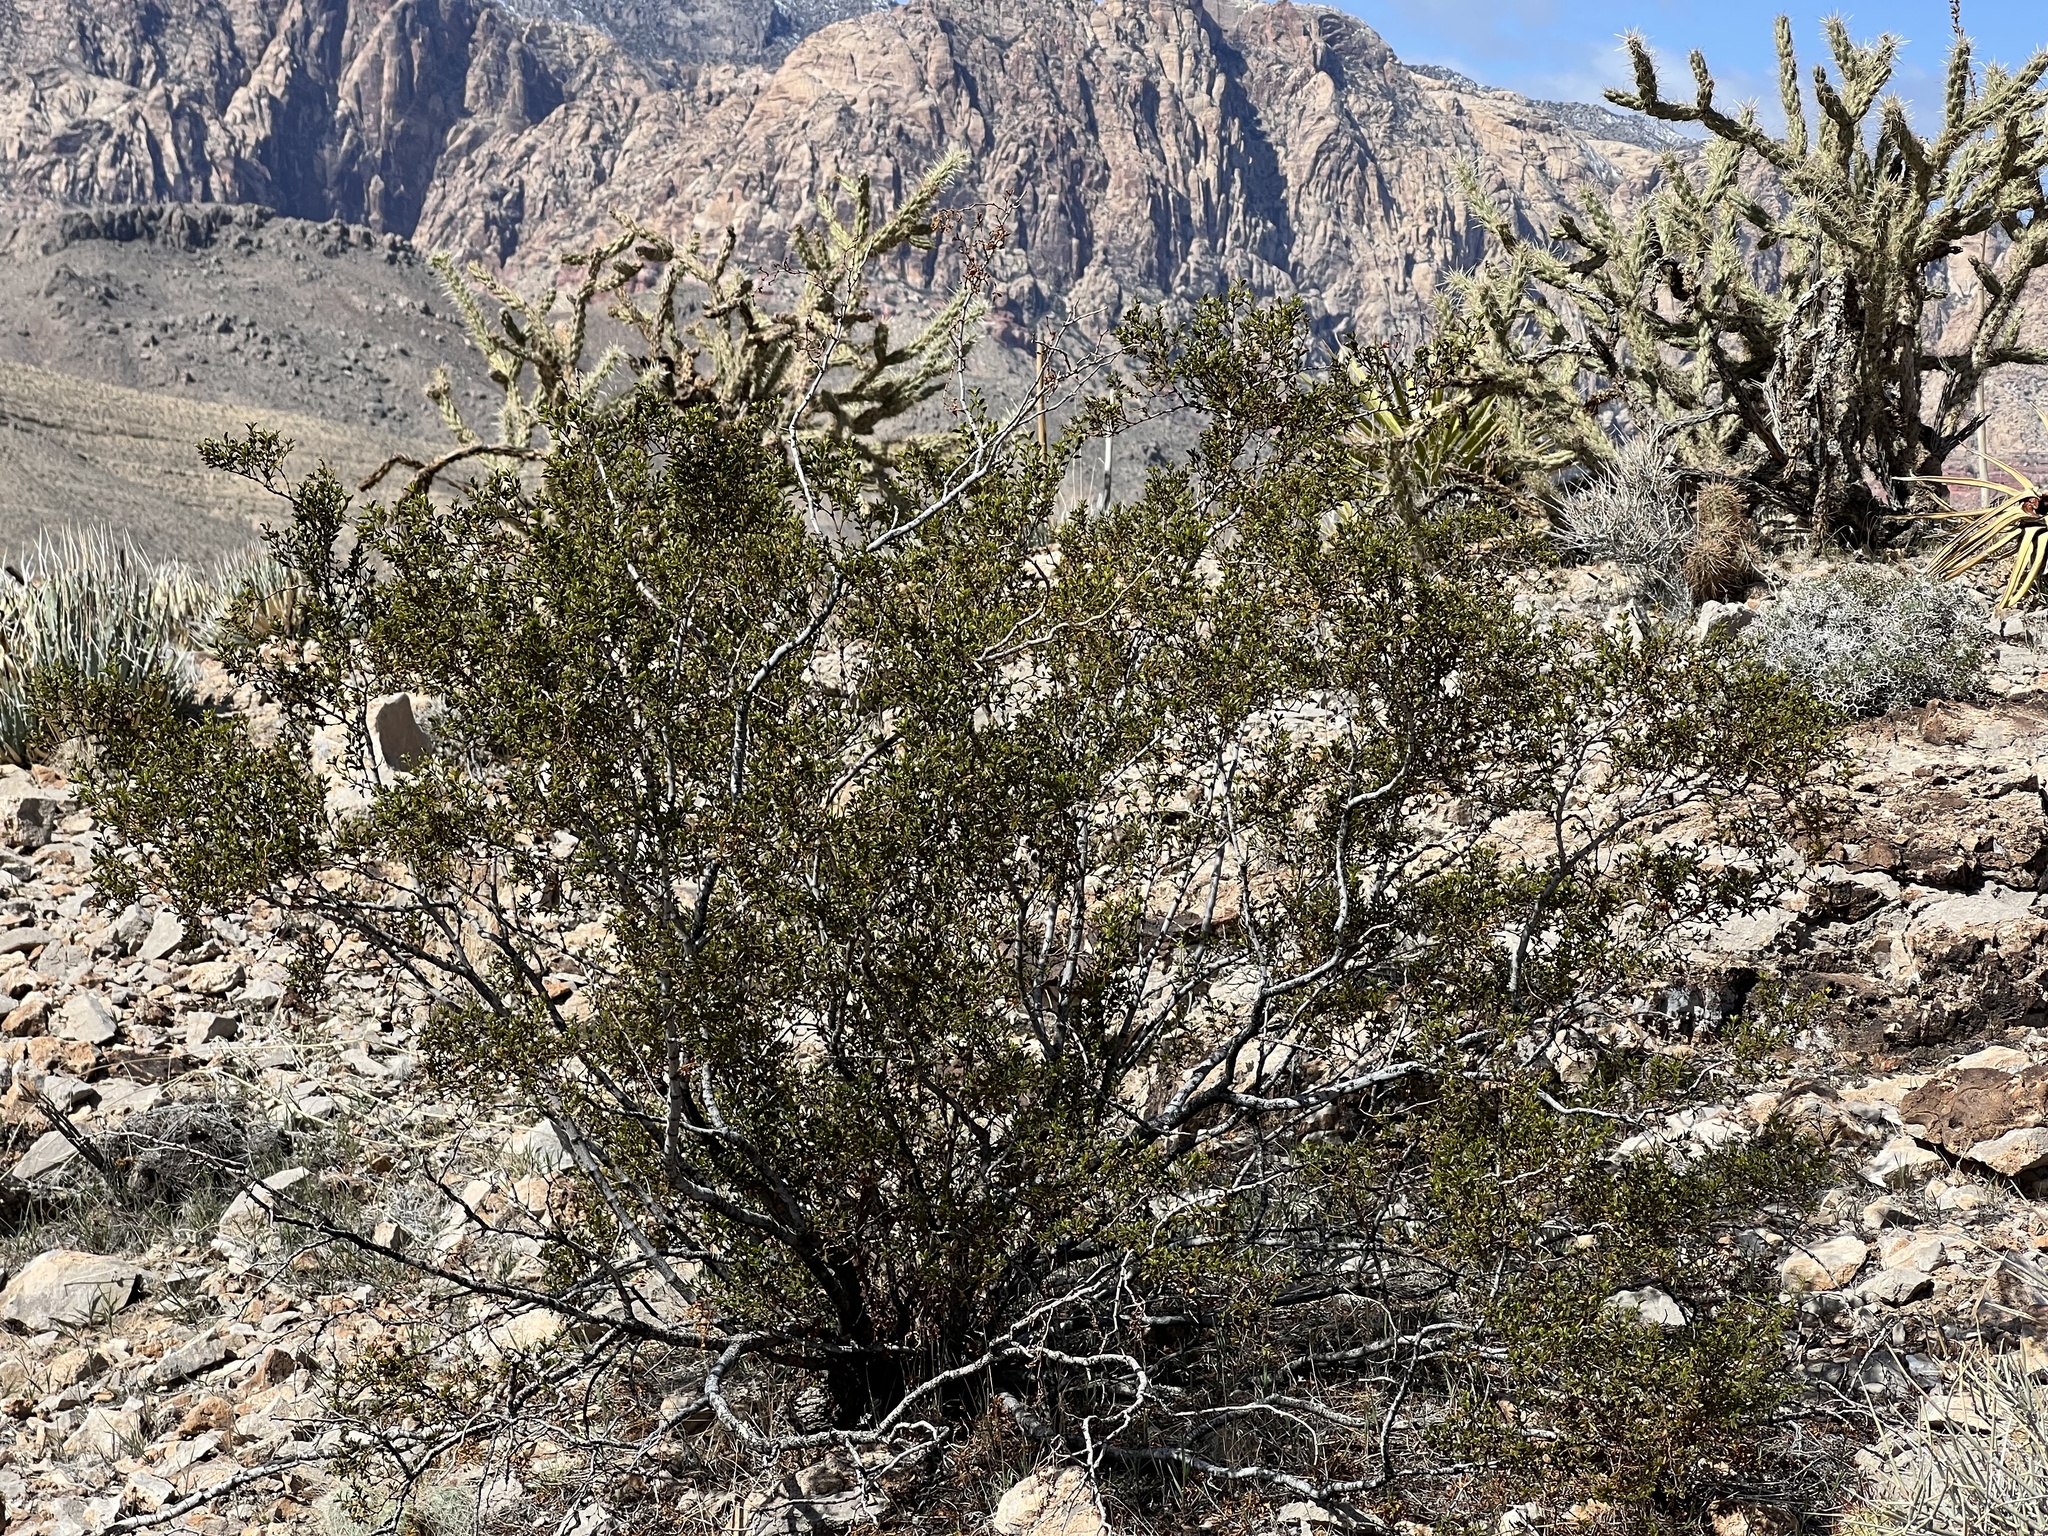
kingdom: Plantae
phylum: Tracheophyta
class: Magnoliopsida
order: Zygophyllales
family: Zygophyllaceae
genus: Larrea
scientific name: Larrea tridentata
